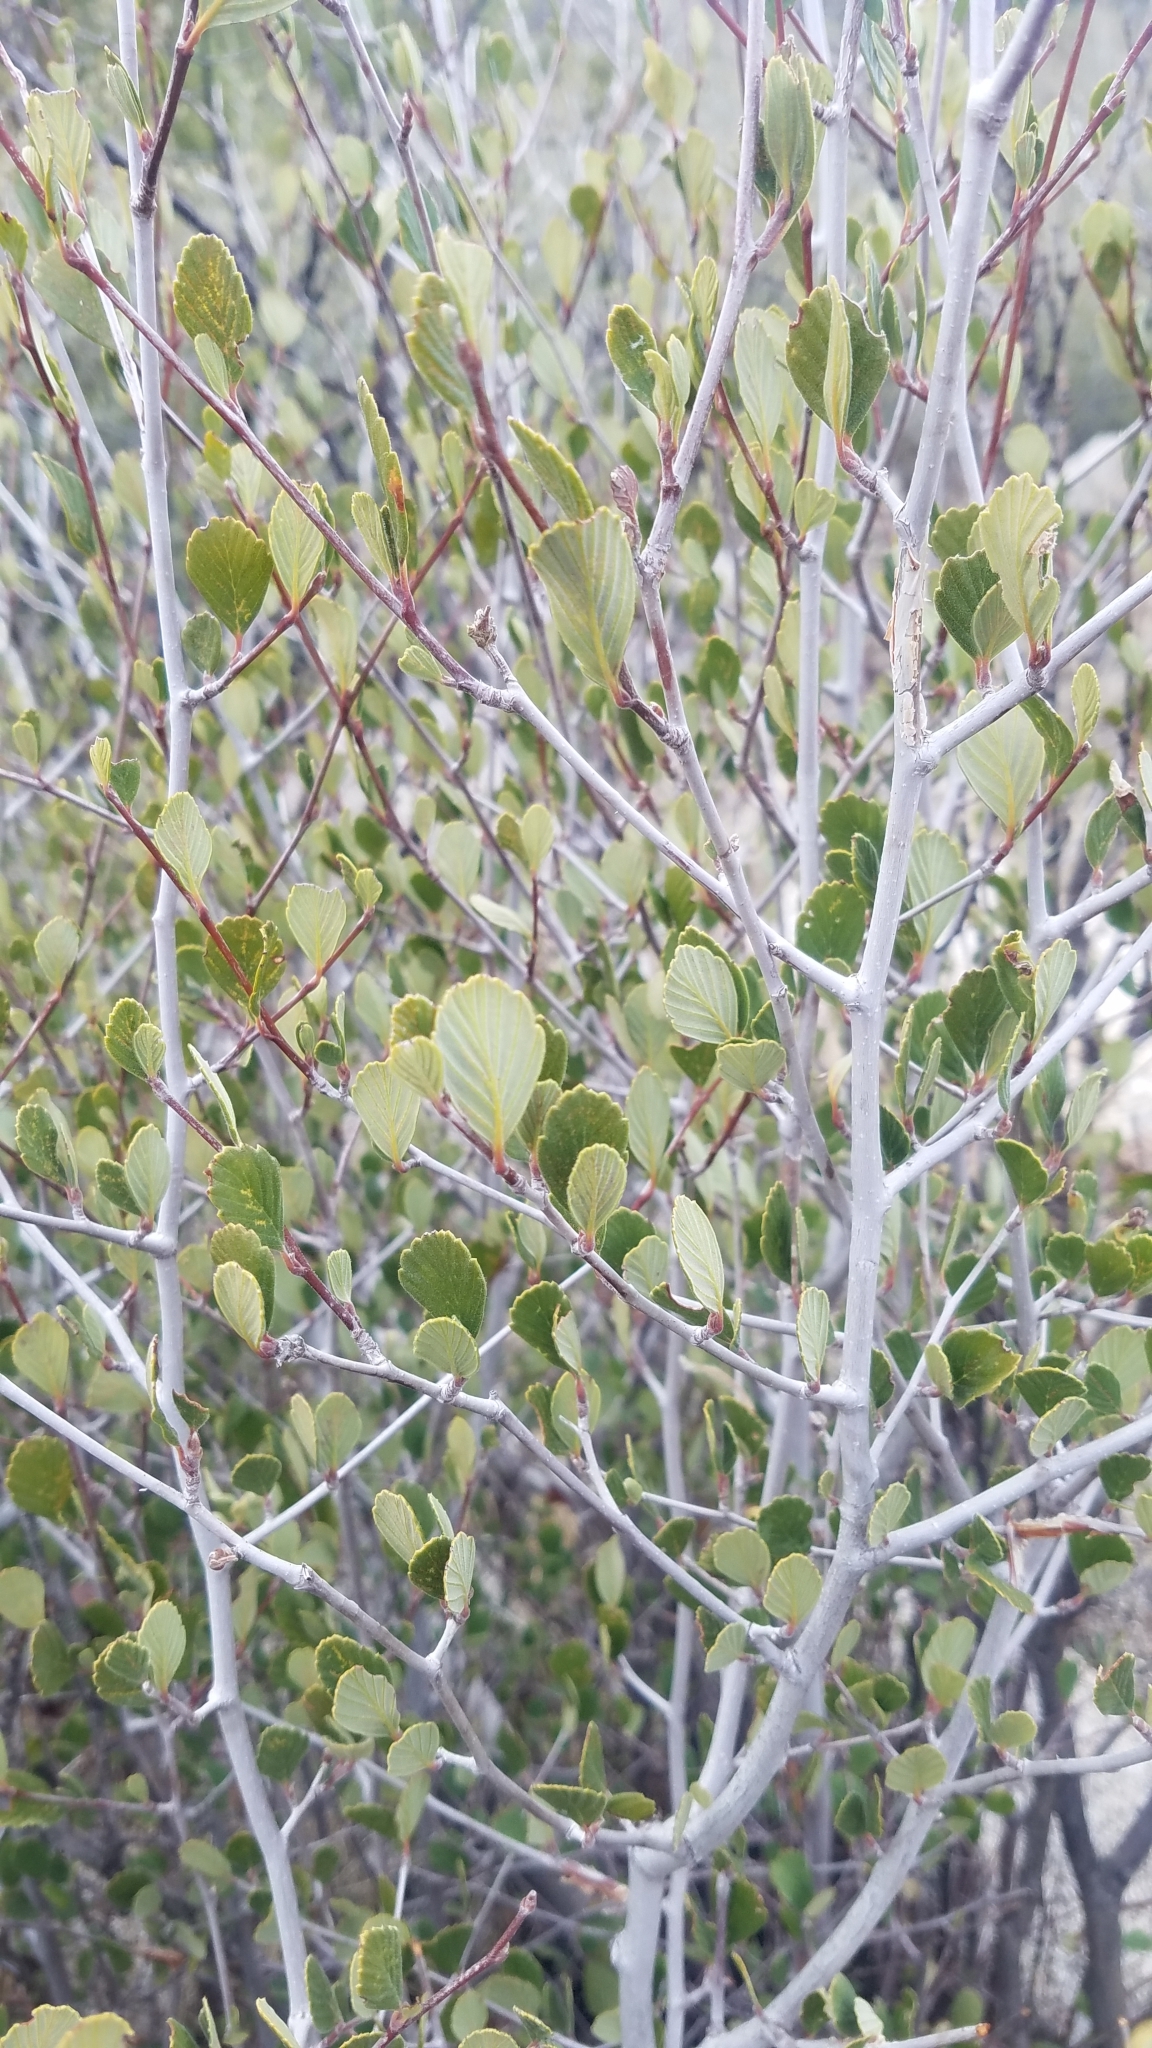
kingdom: Plantae
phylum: Tracheophyta
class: Magnoliopsida
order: Rosales
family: Rosaceae
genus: Cercocarpus
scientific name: Cercocarpus betuloides
